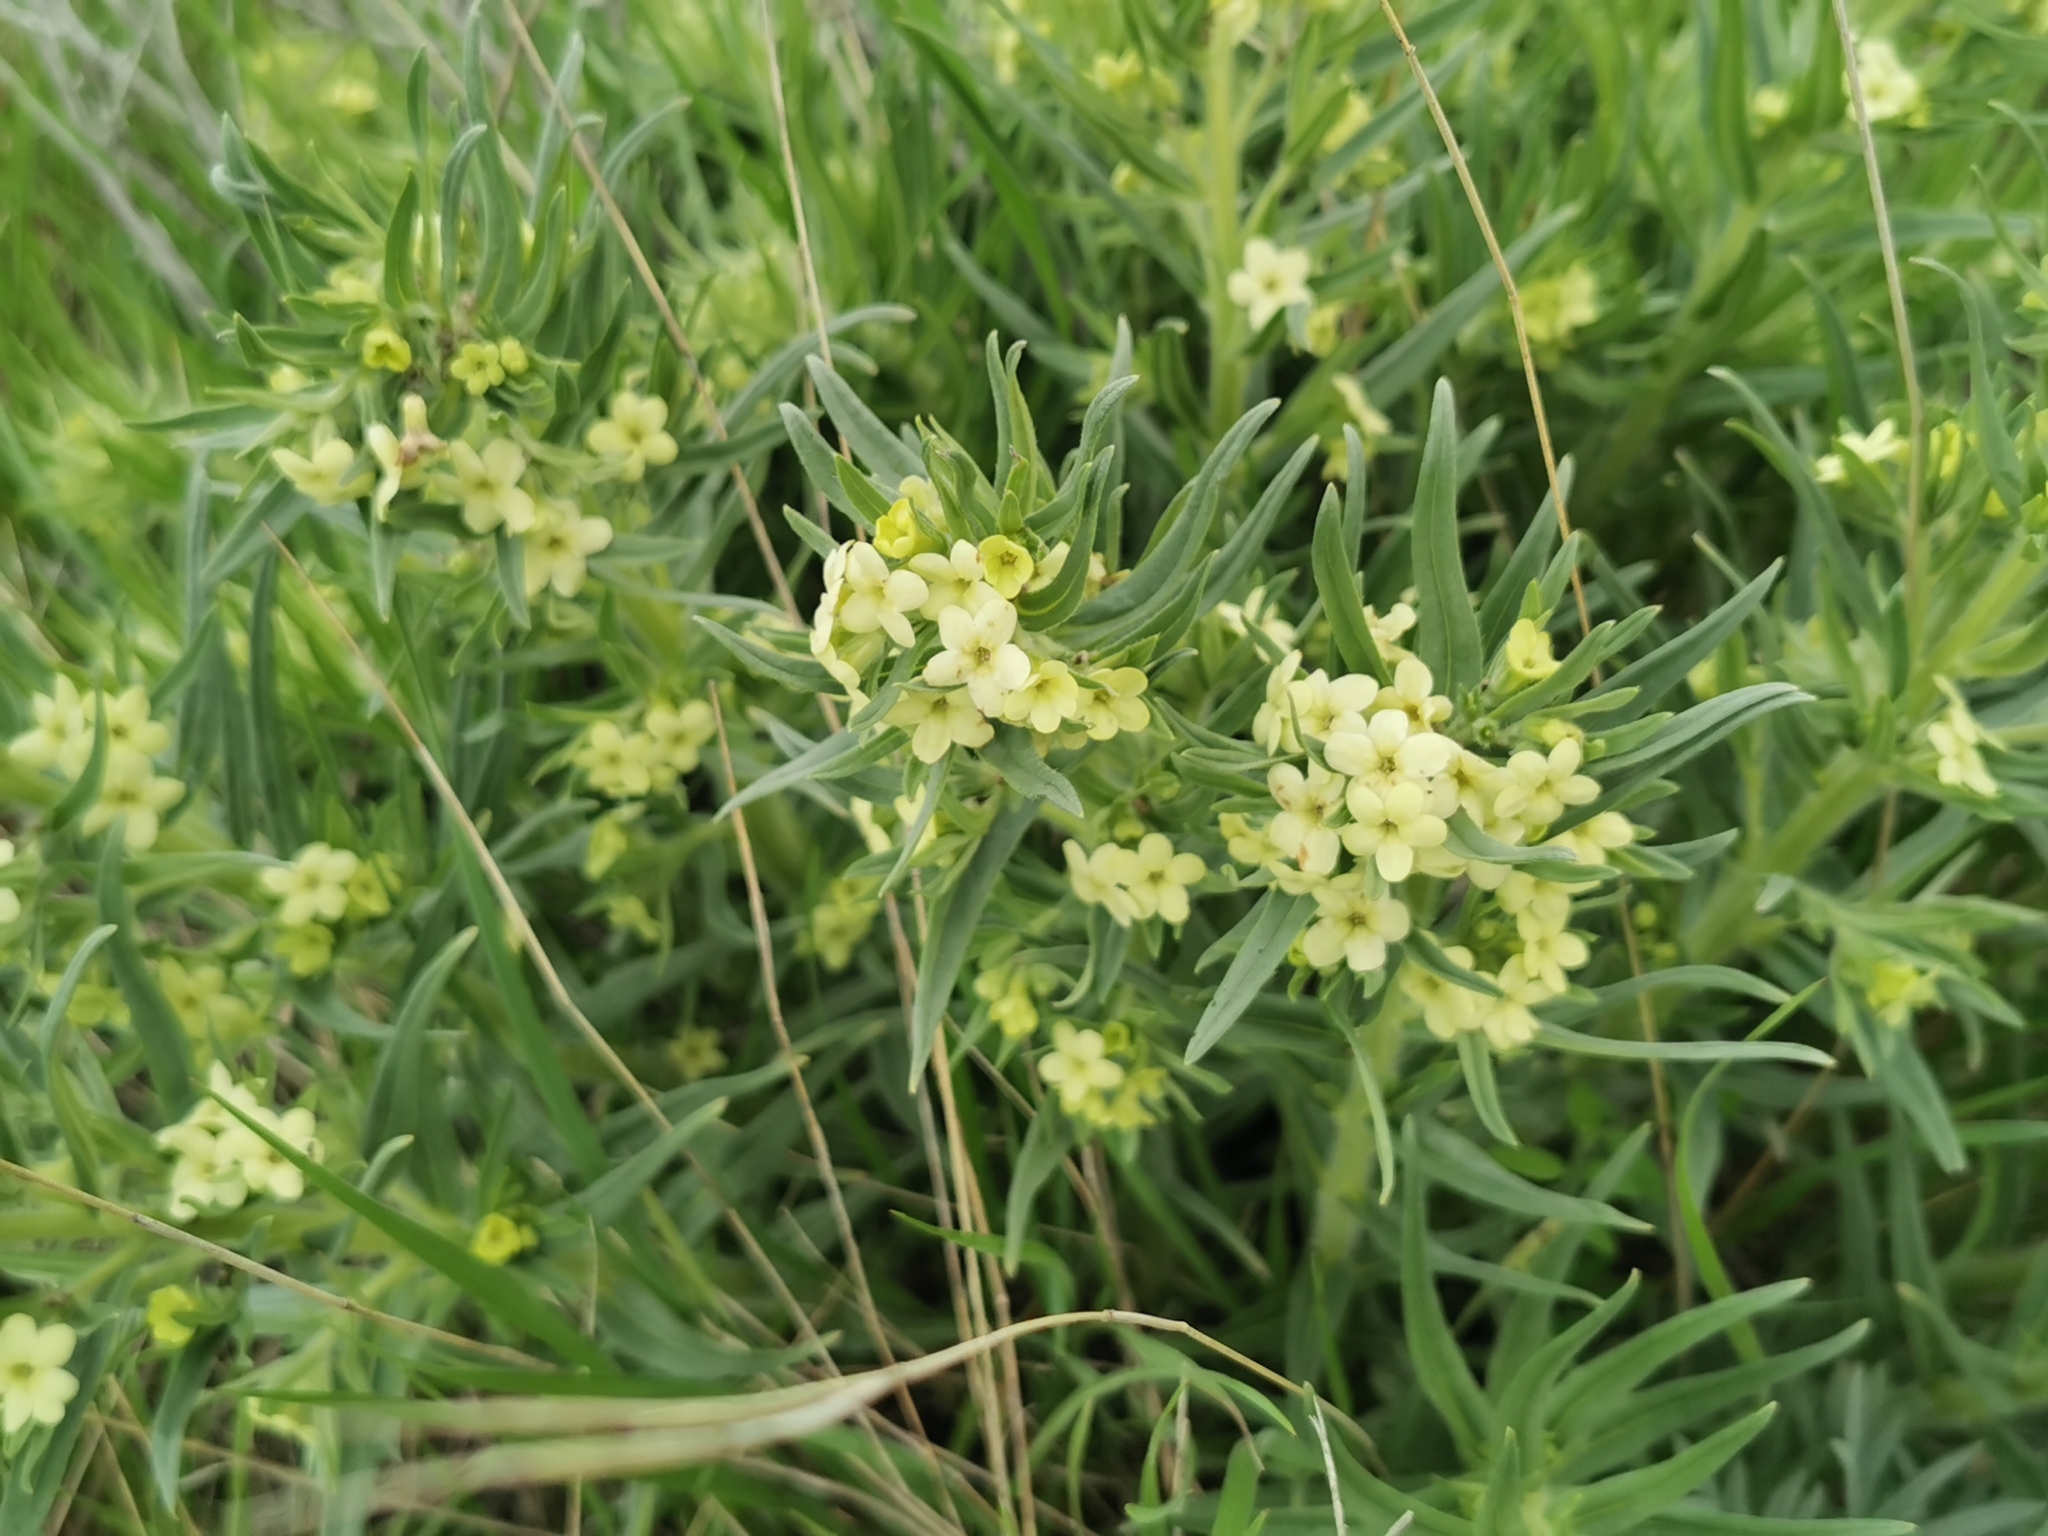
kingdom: Plantae
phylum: Tracheophyta
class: Magnoliopsida
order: Boraginales
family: Boraginaceae
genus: Lithospermum
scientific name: Lithospermum ruderale
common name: Western gromwell
